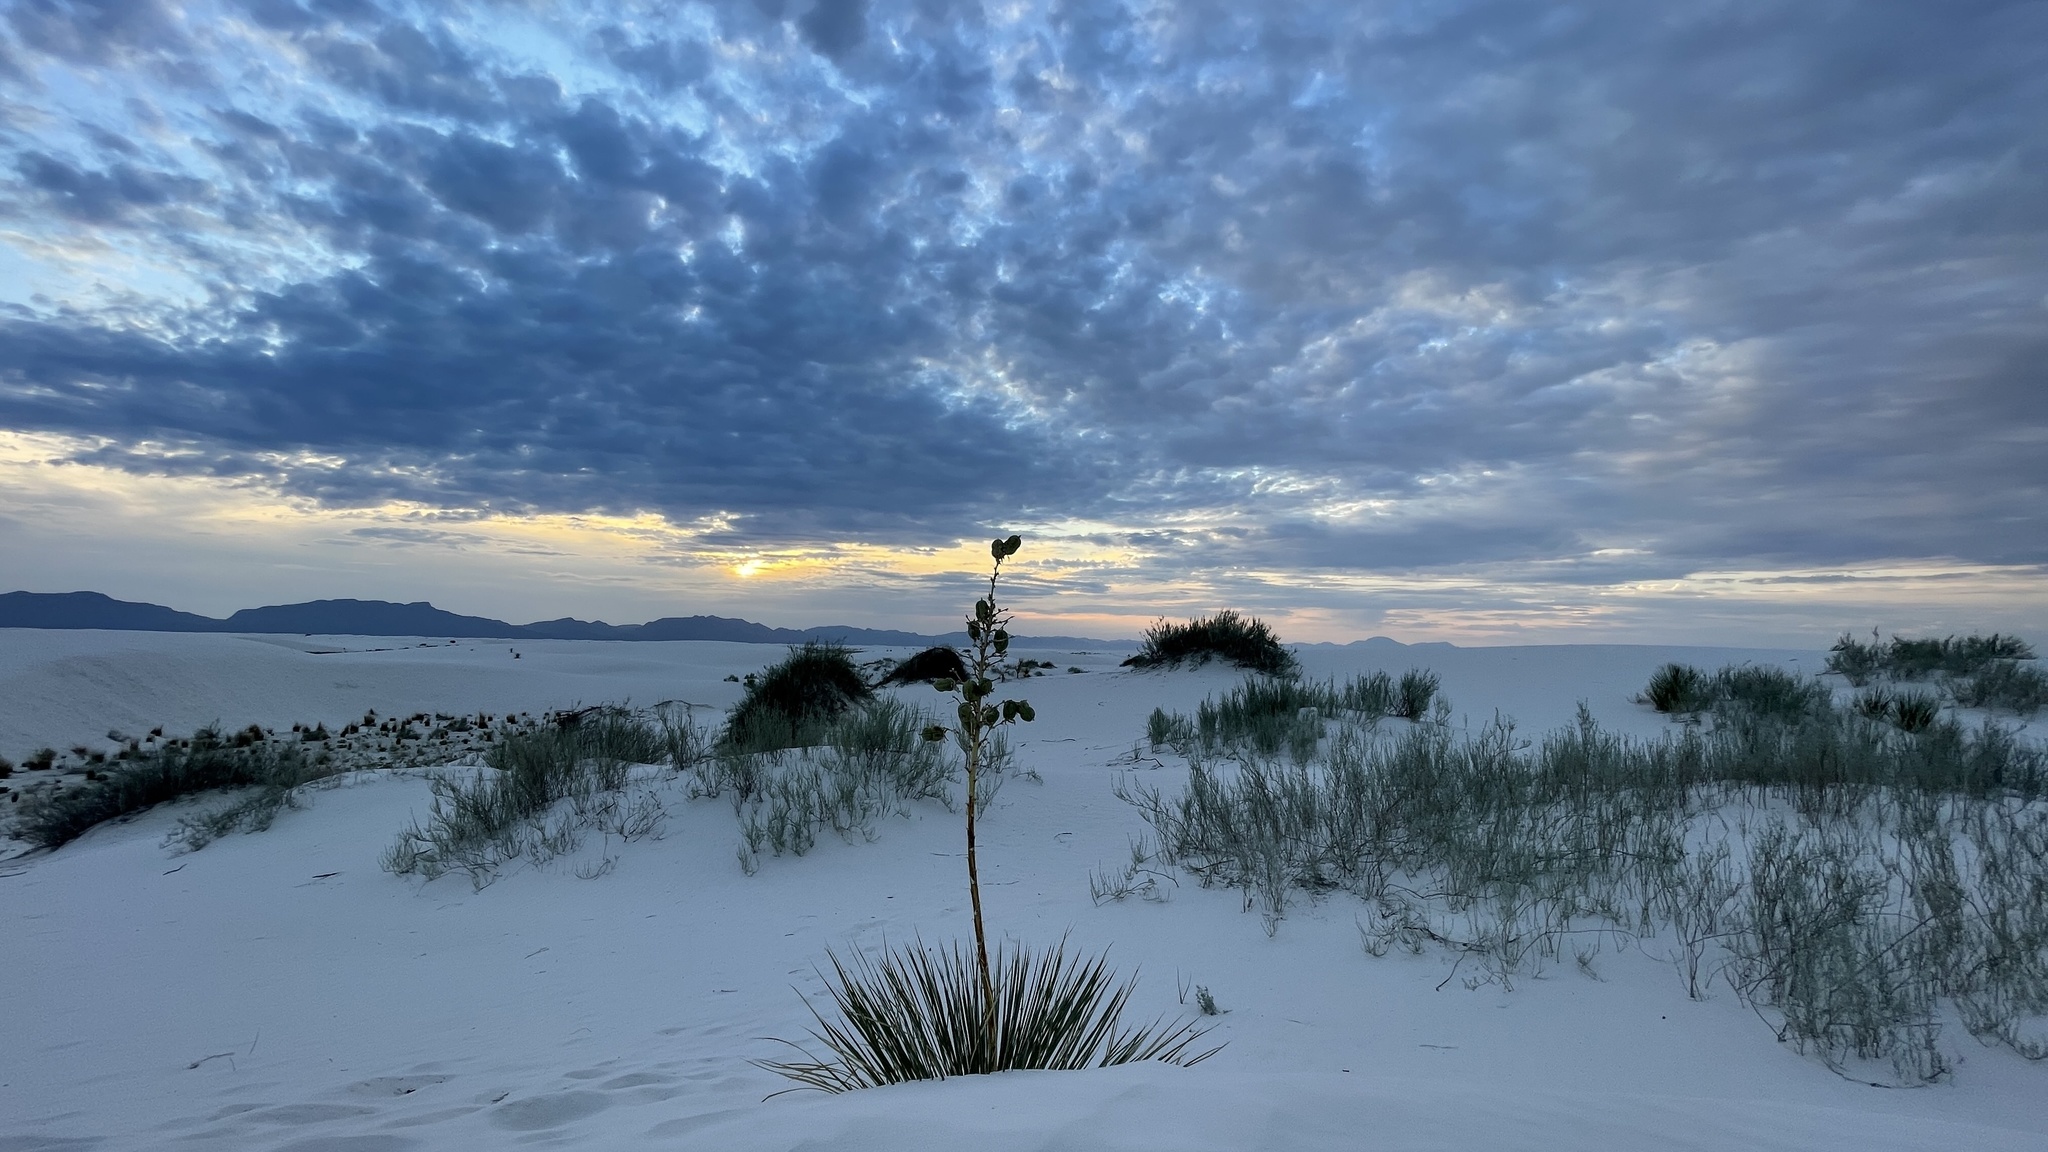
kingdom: Plantae
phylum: Tracheophyta
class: Liliopsida
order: Asparagales
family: Asparagaceae
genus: Yucca
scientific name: Yucca elata
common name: Palmella
